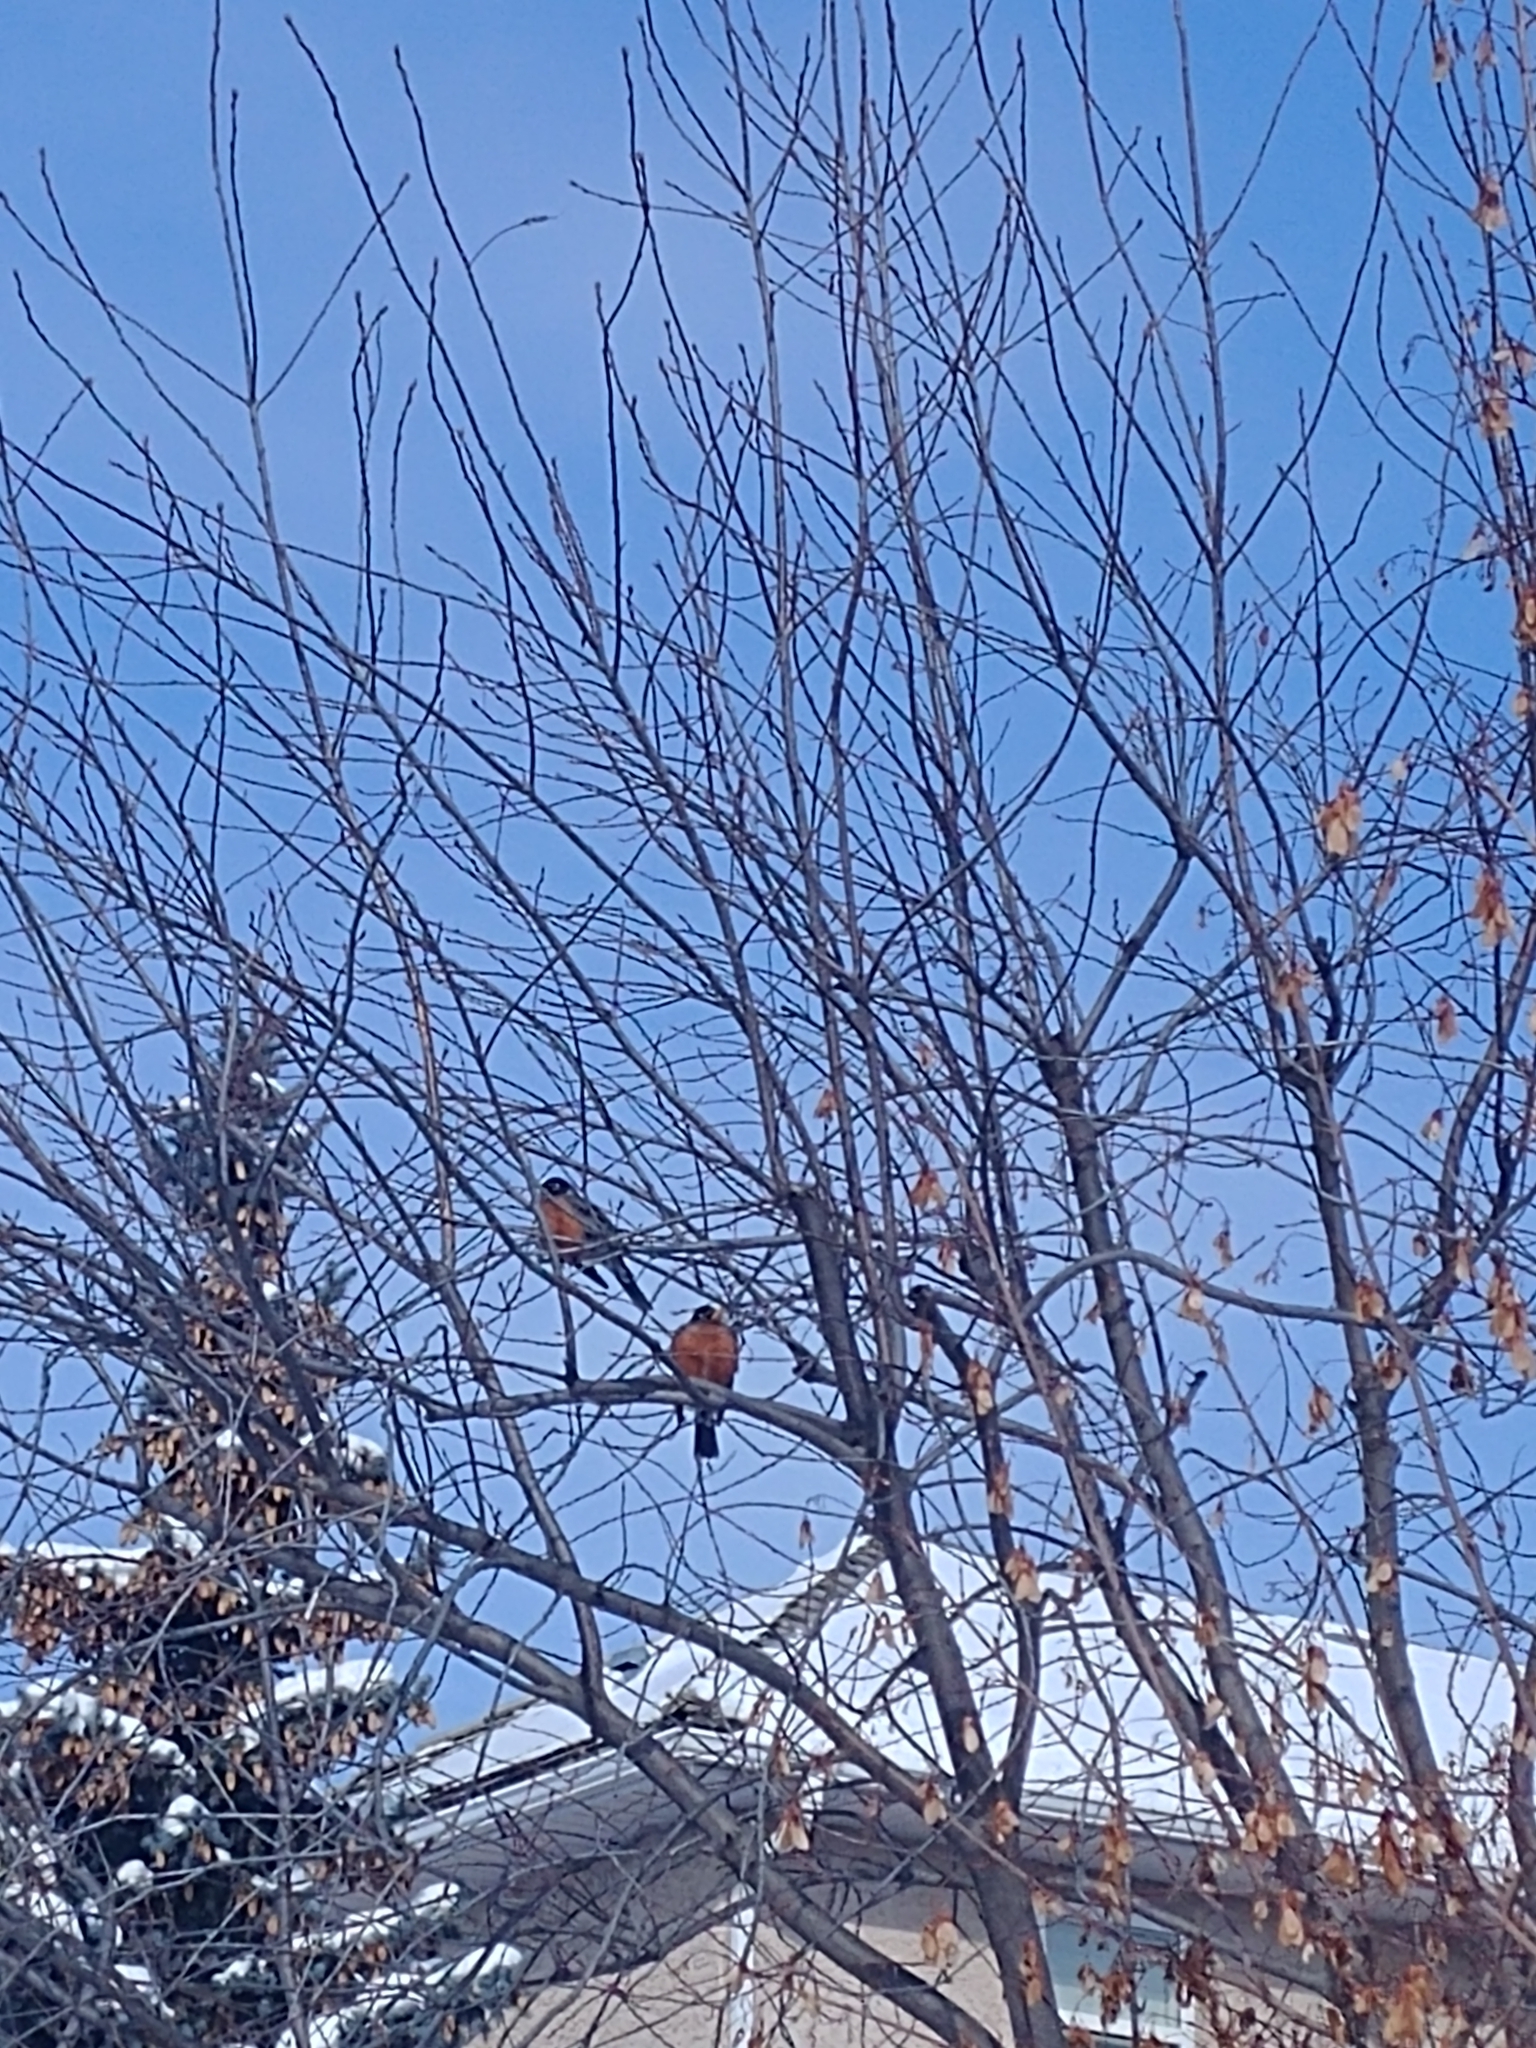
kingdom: Animalia
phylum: Chordata
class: Aves
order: Passeriformes
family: Turdidae
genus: Turdus
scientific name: Turdus migratorius
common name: American robin
